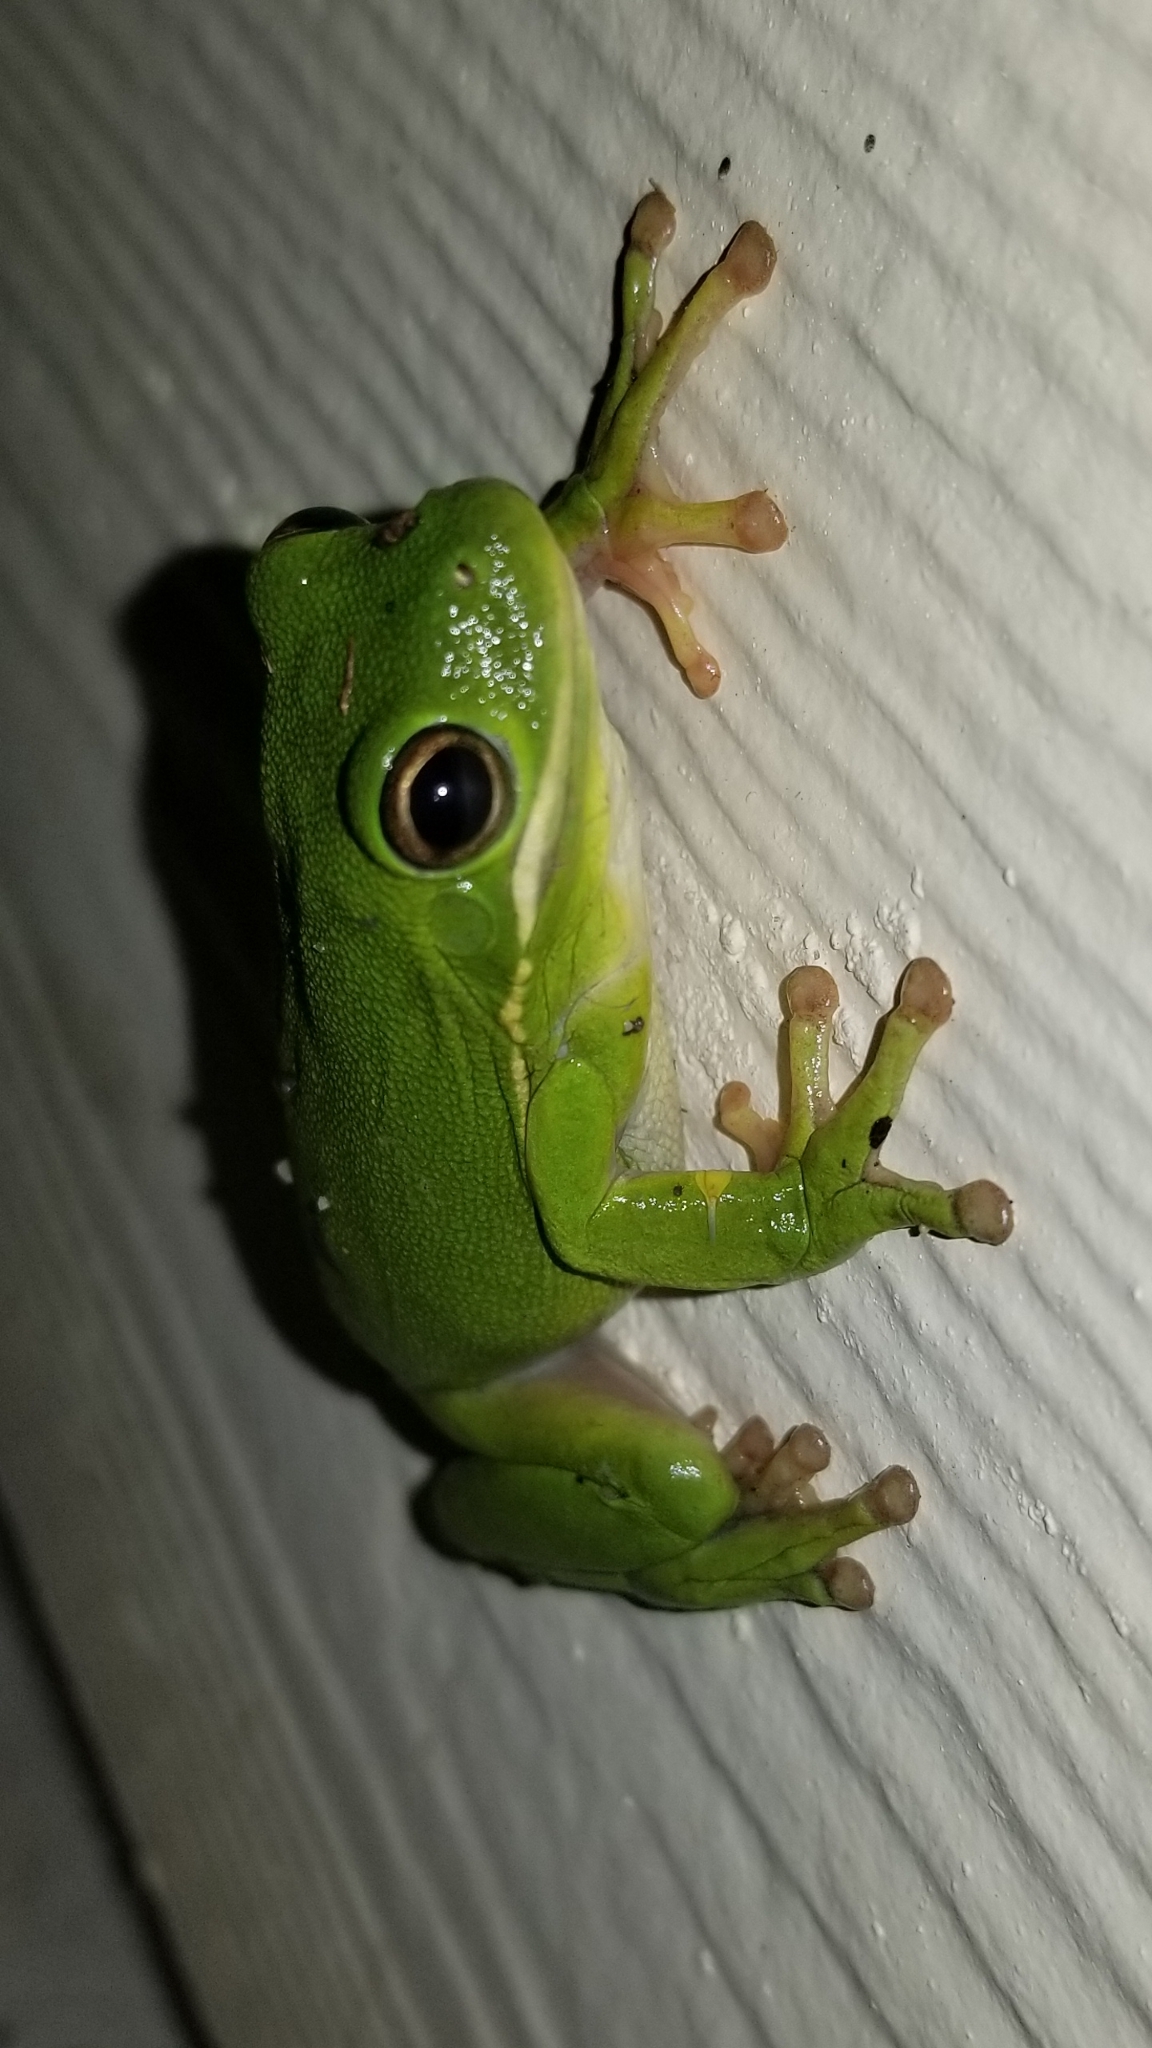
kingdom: Animalia
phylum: Chordata
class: Amphibia
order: Anura
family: Hylidae
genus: Dryophytes
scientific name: Dryophytes cinereus
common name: Green treefrog
